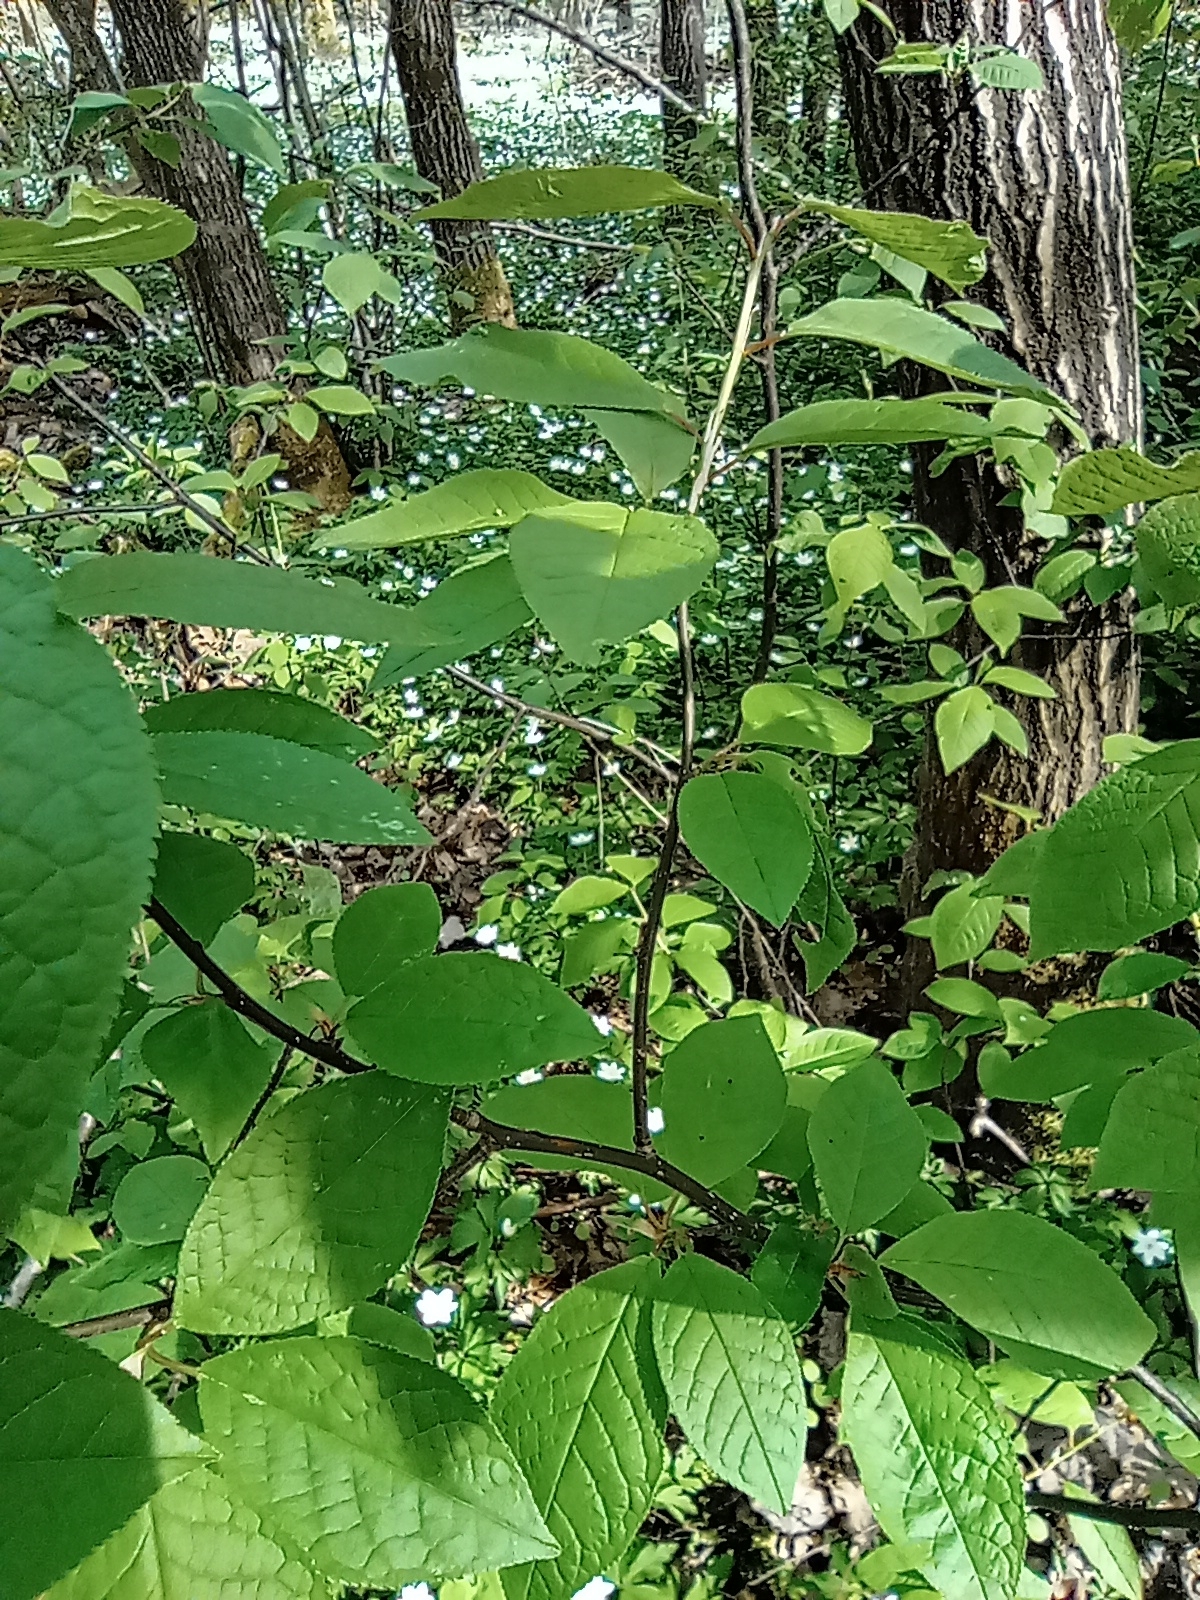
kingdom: Plantae
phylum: Tracheophyta
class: Magnoliopsida
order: Rosales
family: Rosaceae
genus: Prunus
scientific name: Prunus padus
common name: Bird cherry
